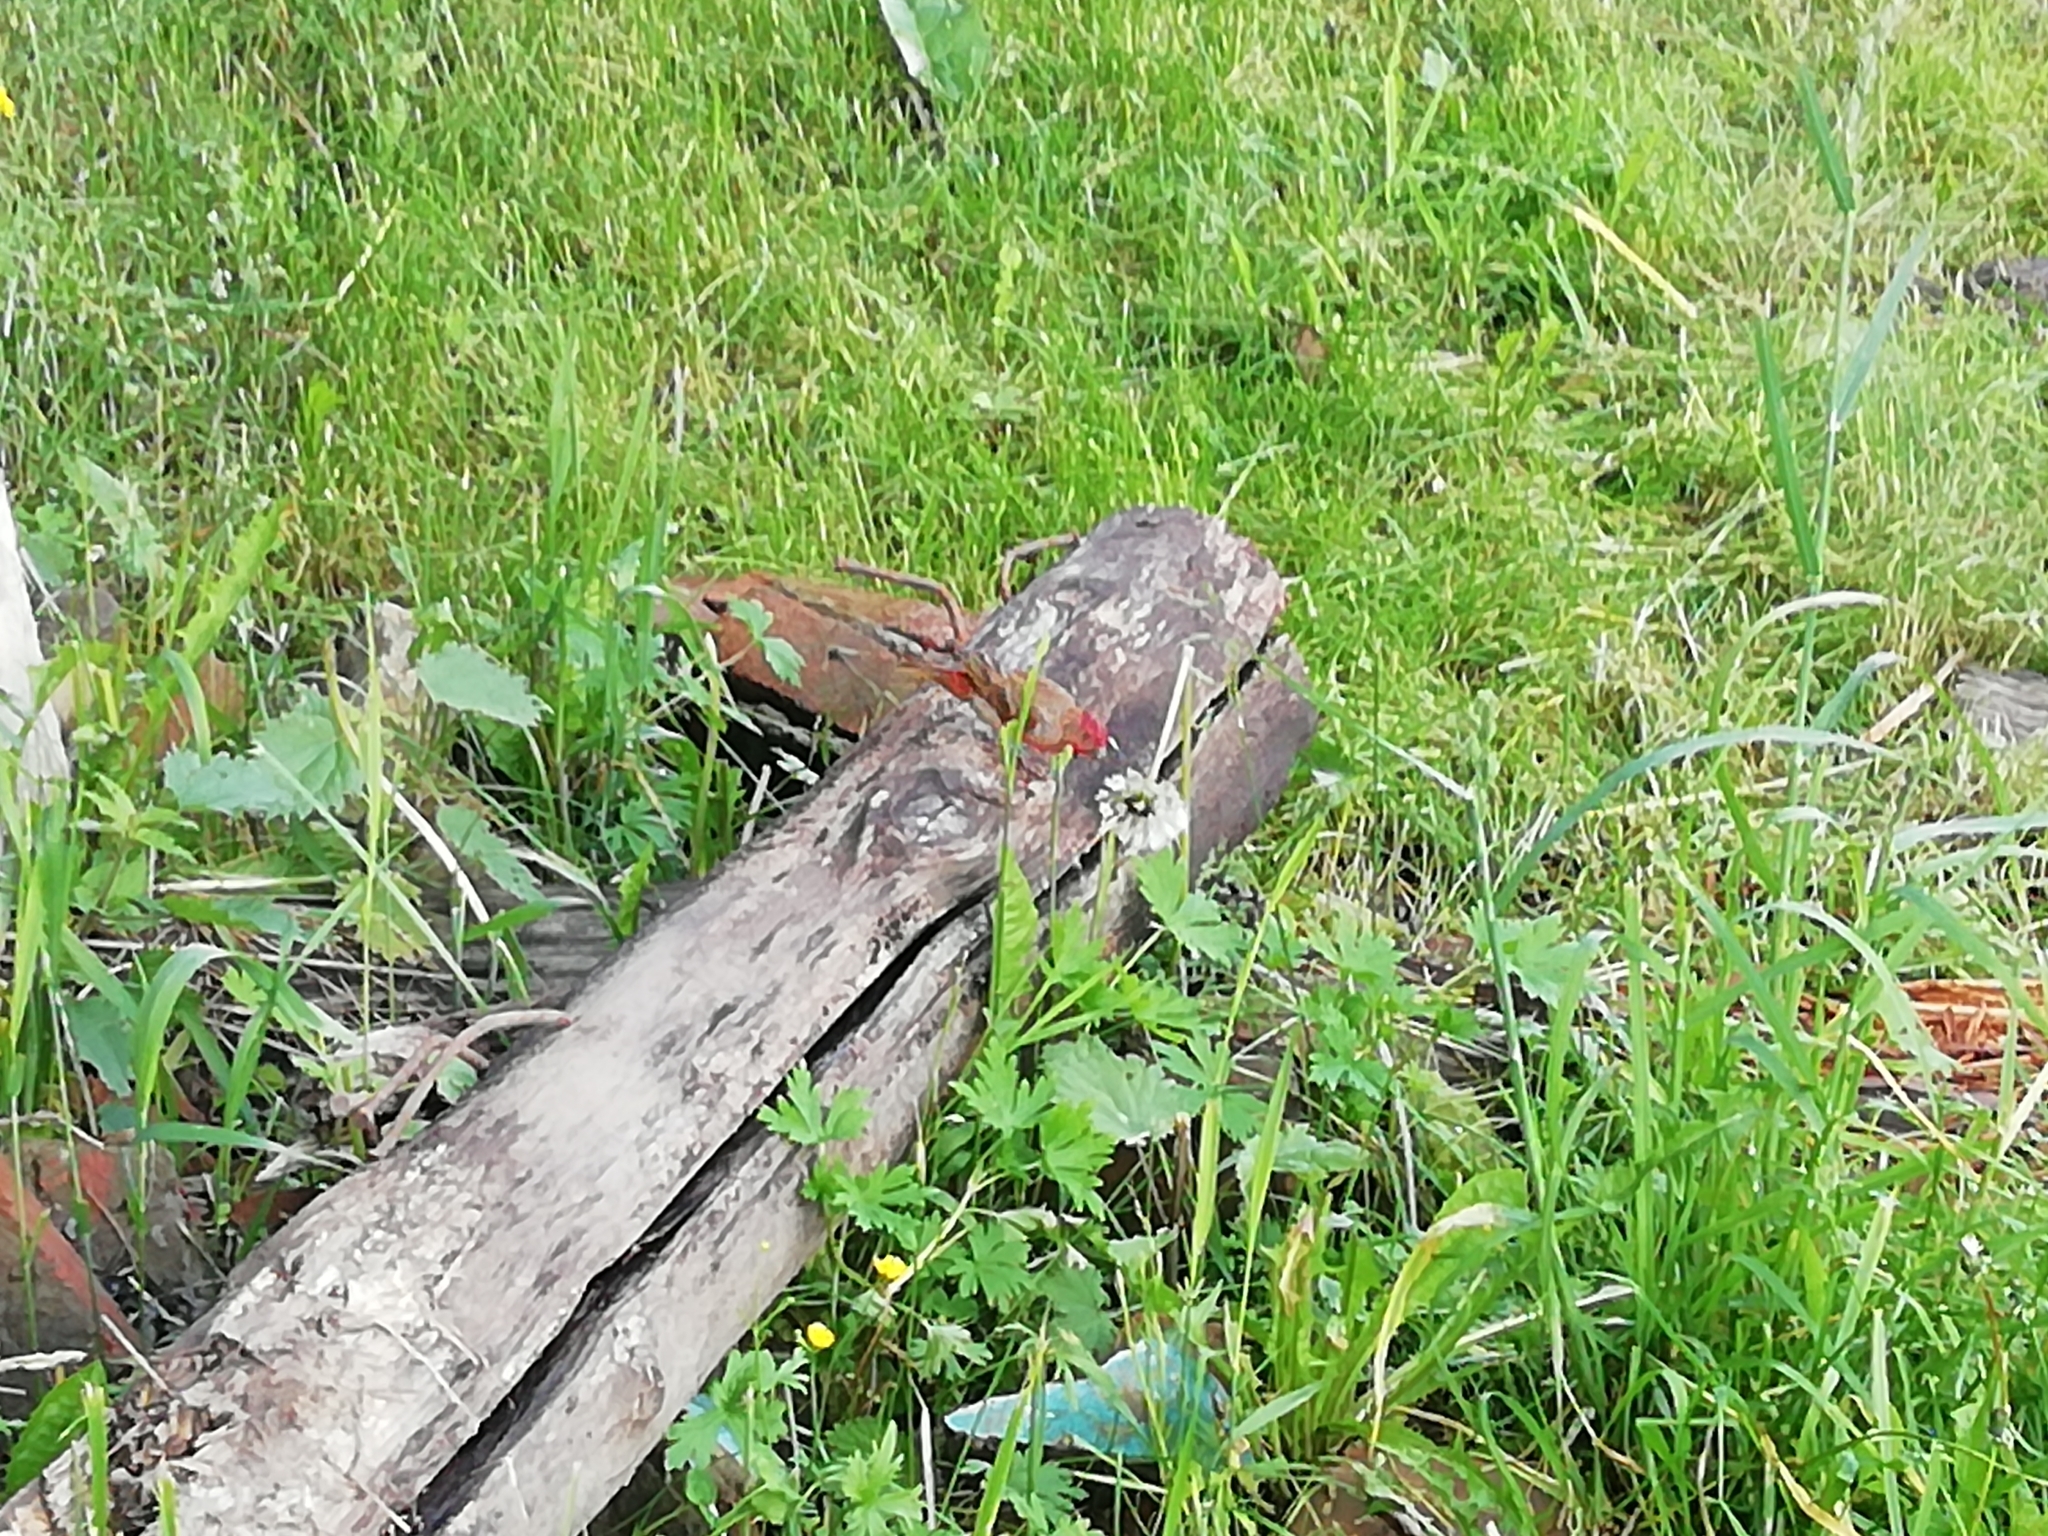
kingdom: Animalia
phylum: Chordata
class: Aves
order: Passeriformes
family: Fringillidae
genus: Carpodacus
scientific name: Carpodacus erythrinus
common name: Common rosefinch
